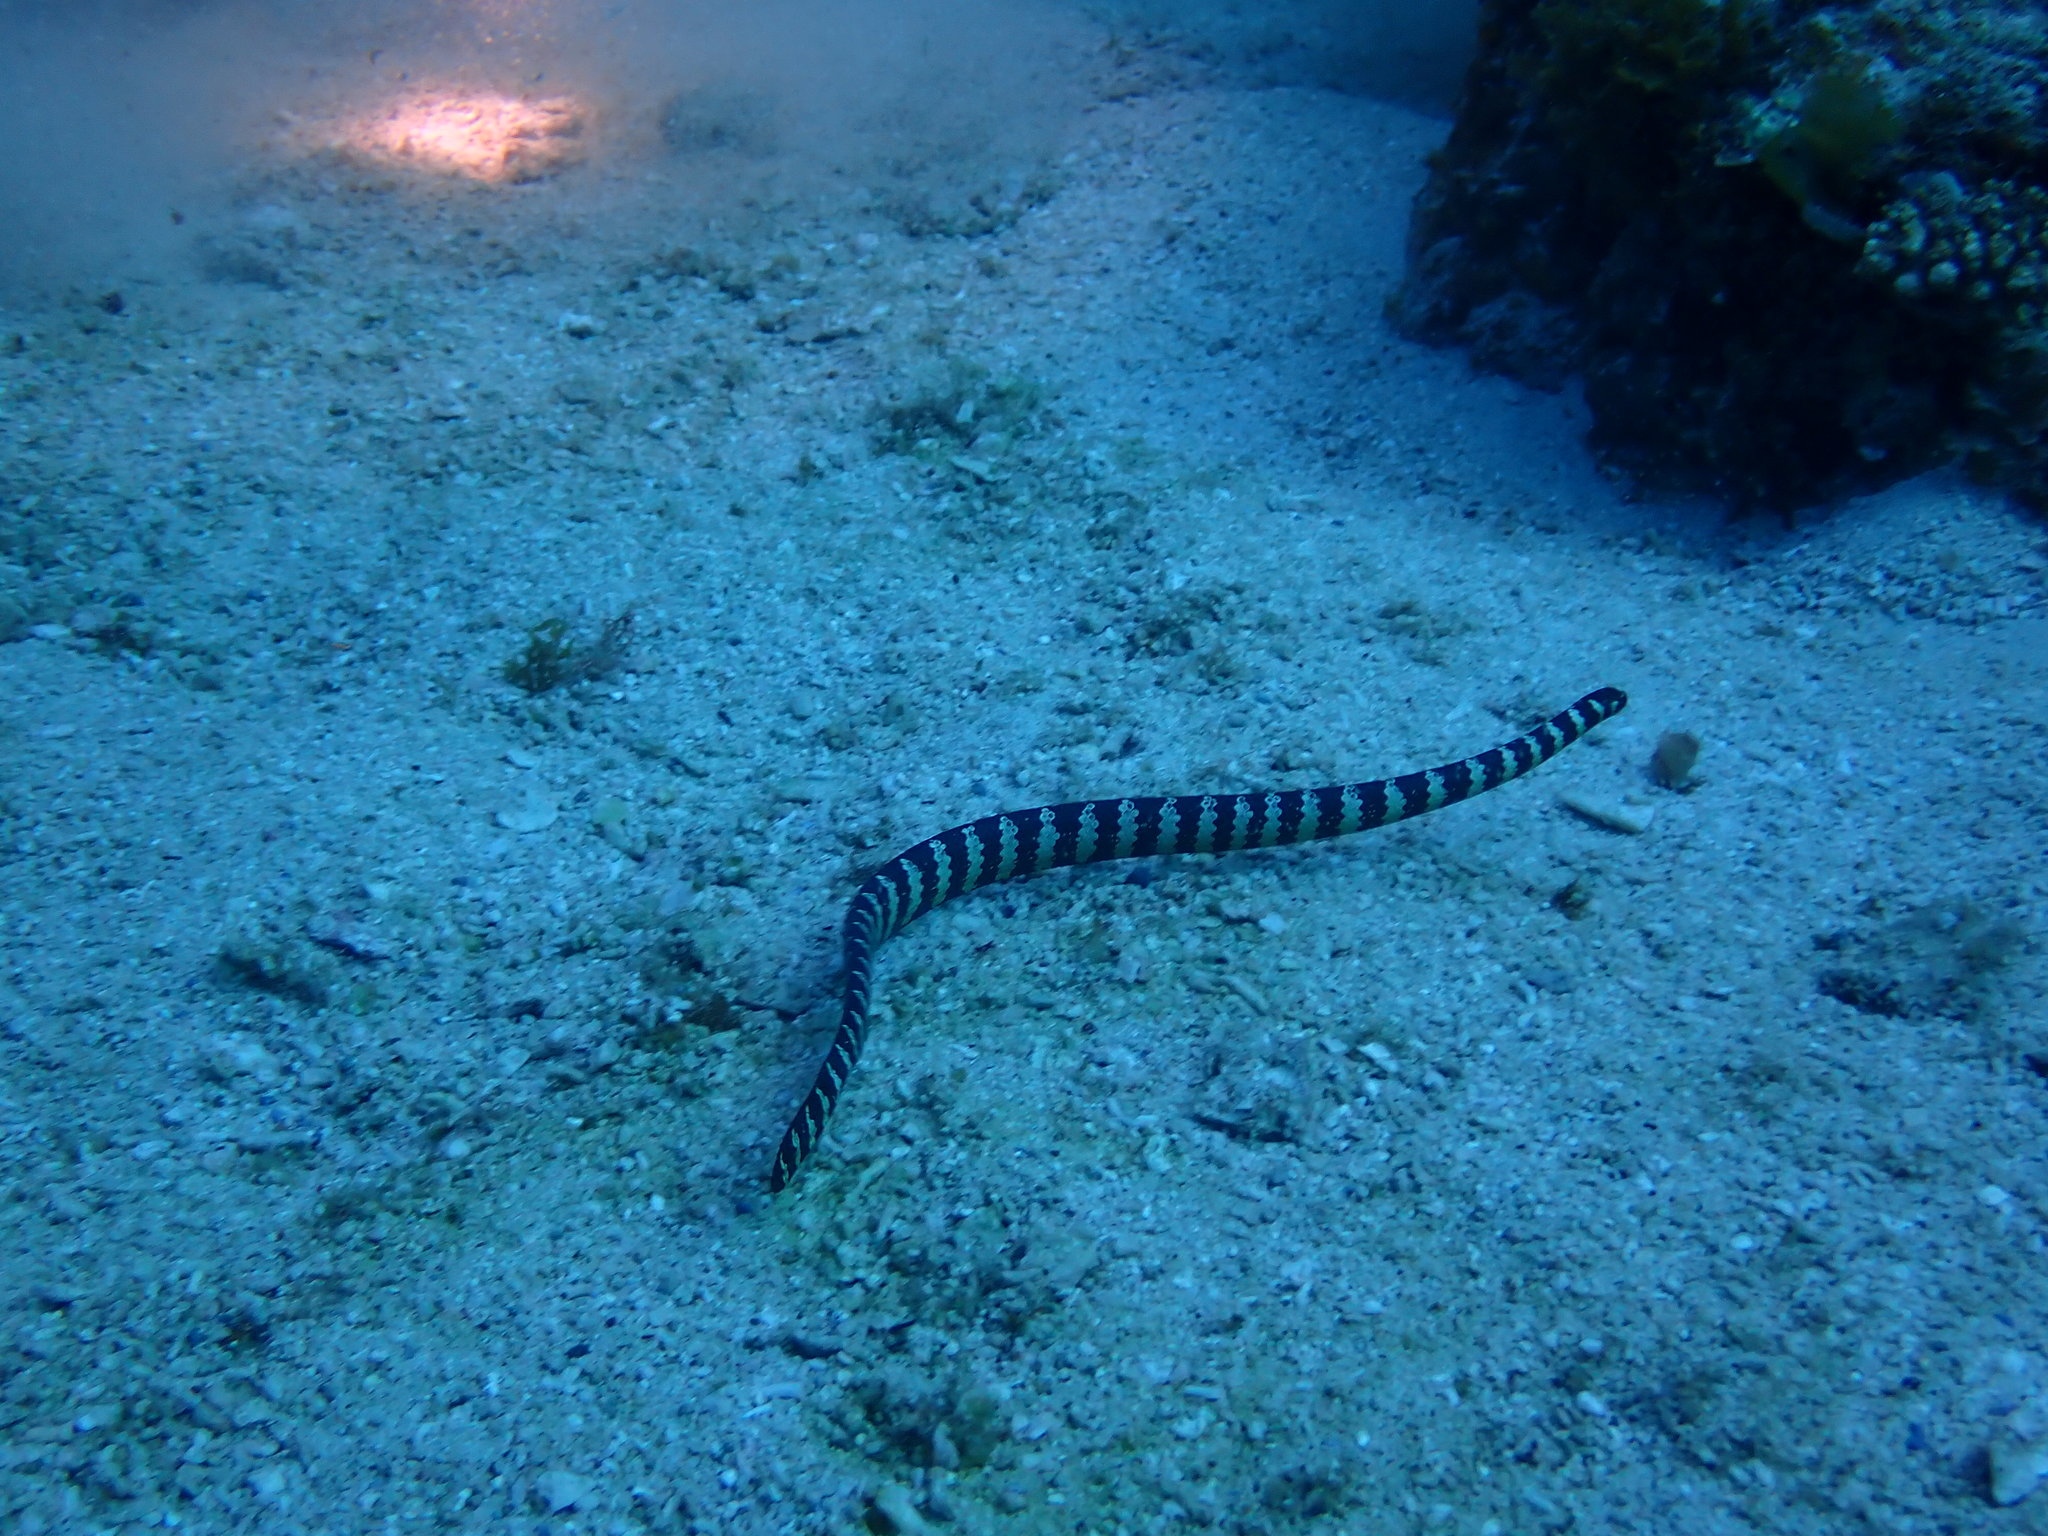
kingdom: Animalia
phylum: Chordata
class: Squamata
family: Elapidae
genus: Emydocephalus
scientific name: Emydocephalus ijimae
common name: Turtlehead sea snake
